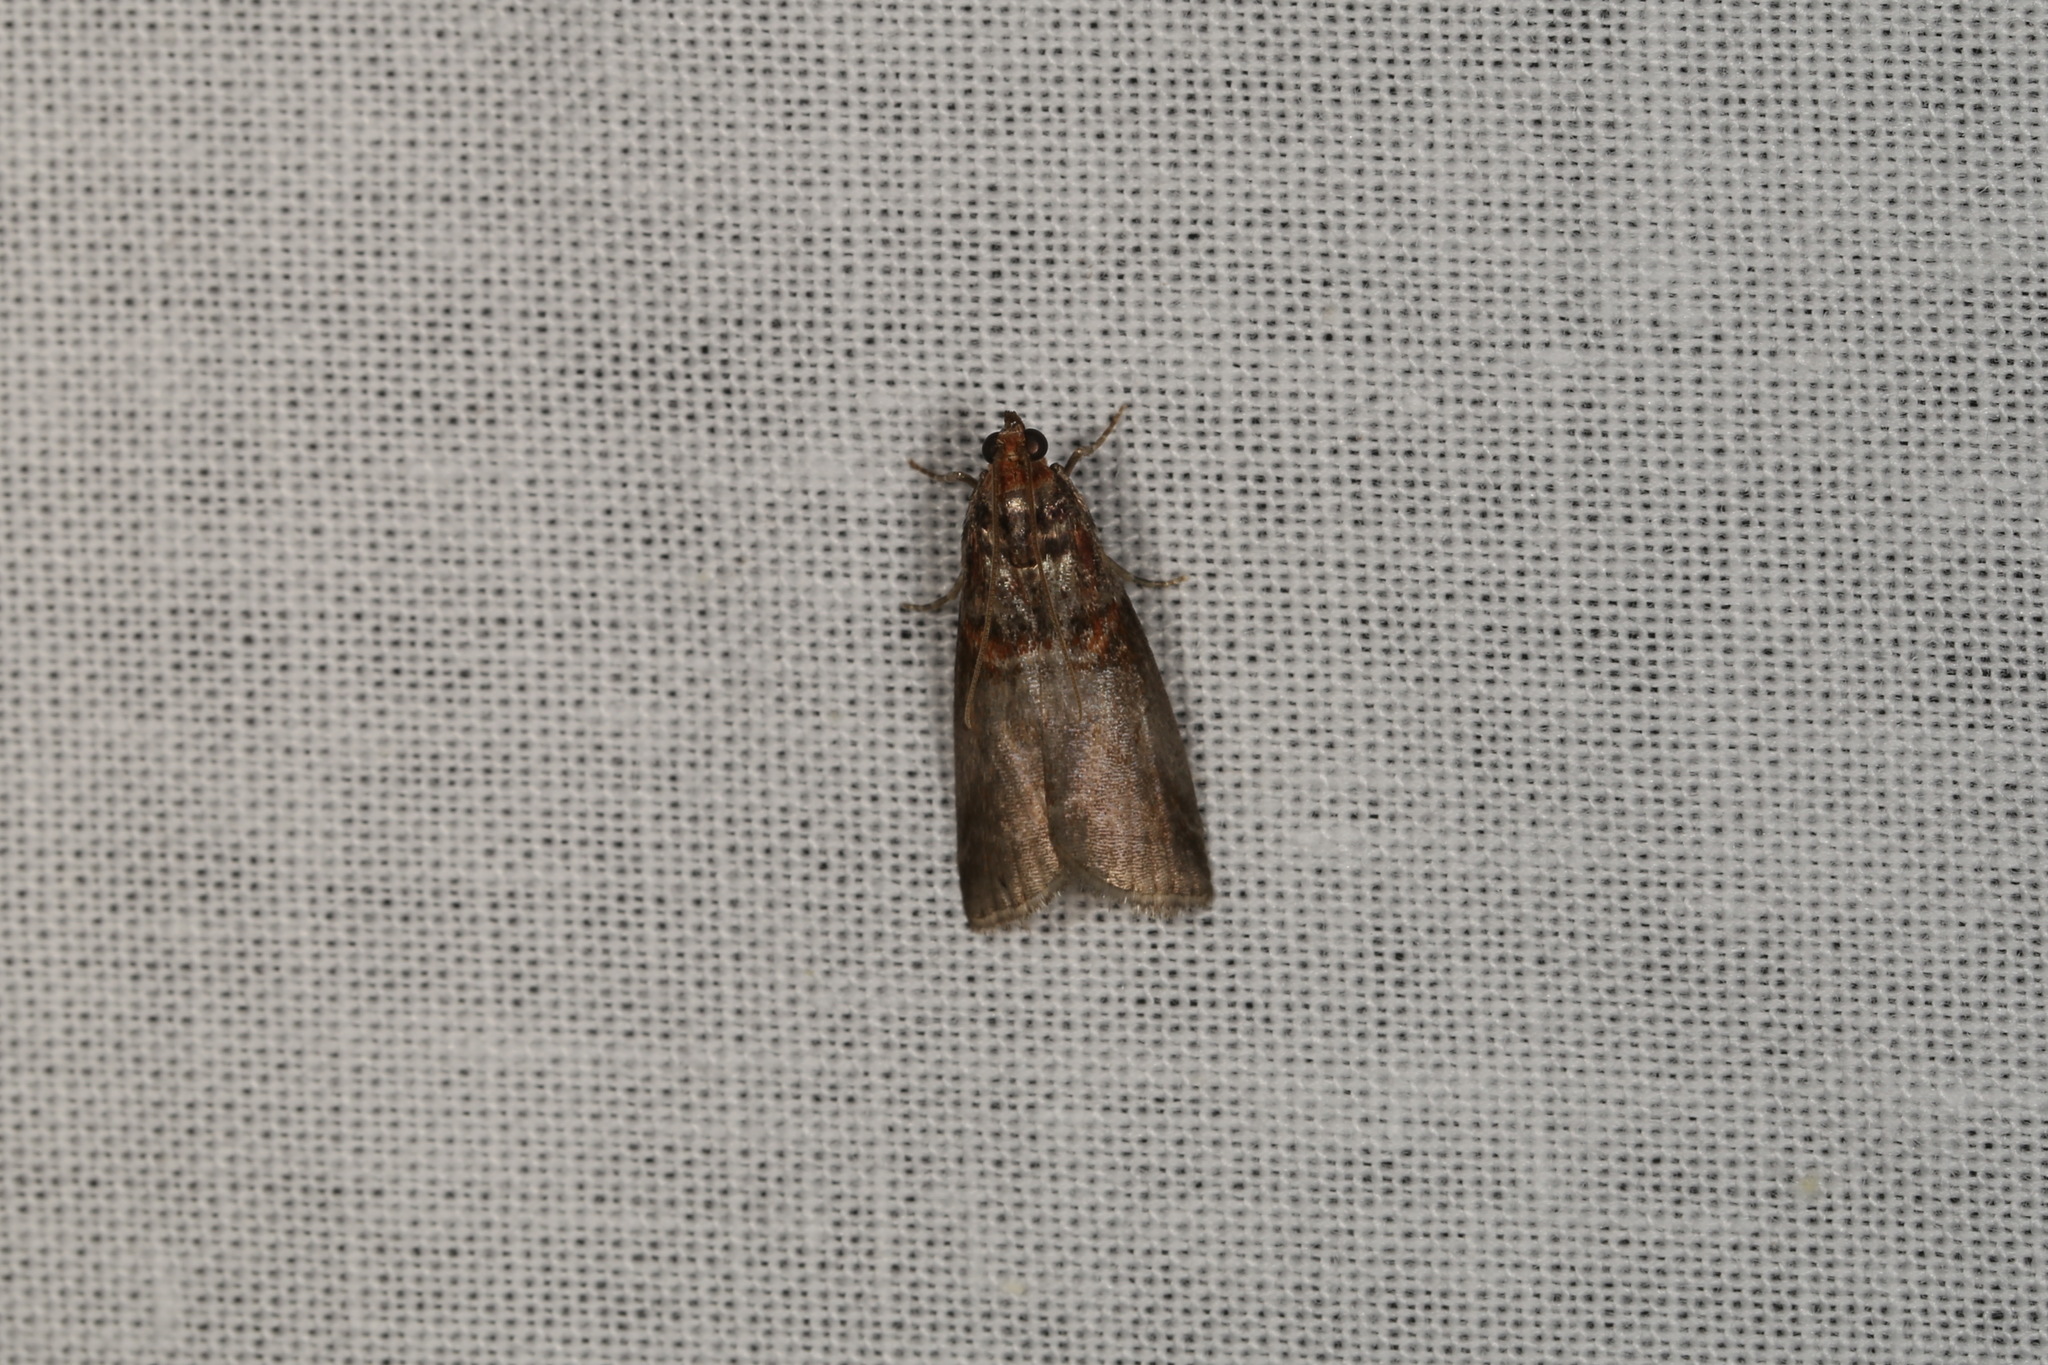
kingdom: Animalia
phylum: Arthropoda
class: Insecta
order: Lepidoptera
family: Pyralidae
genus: Acrobasis
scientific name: Acrobasis advenella
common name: Grey knot-horn
